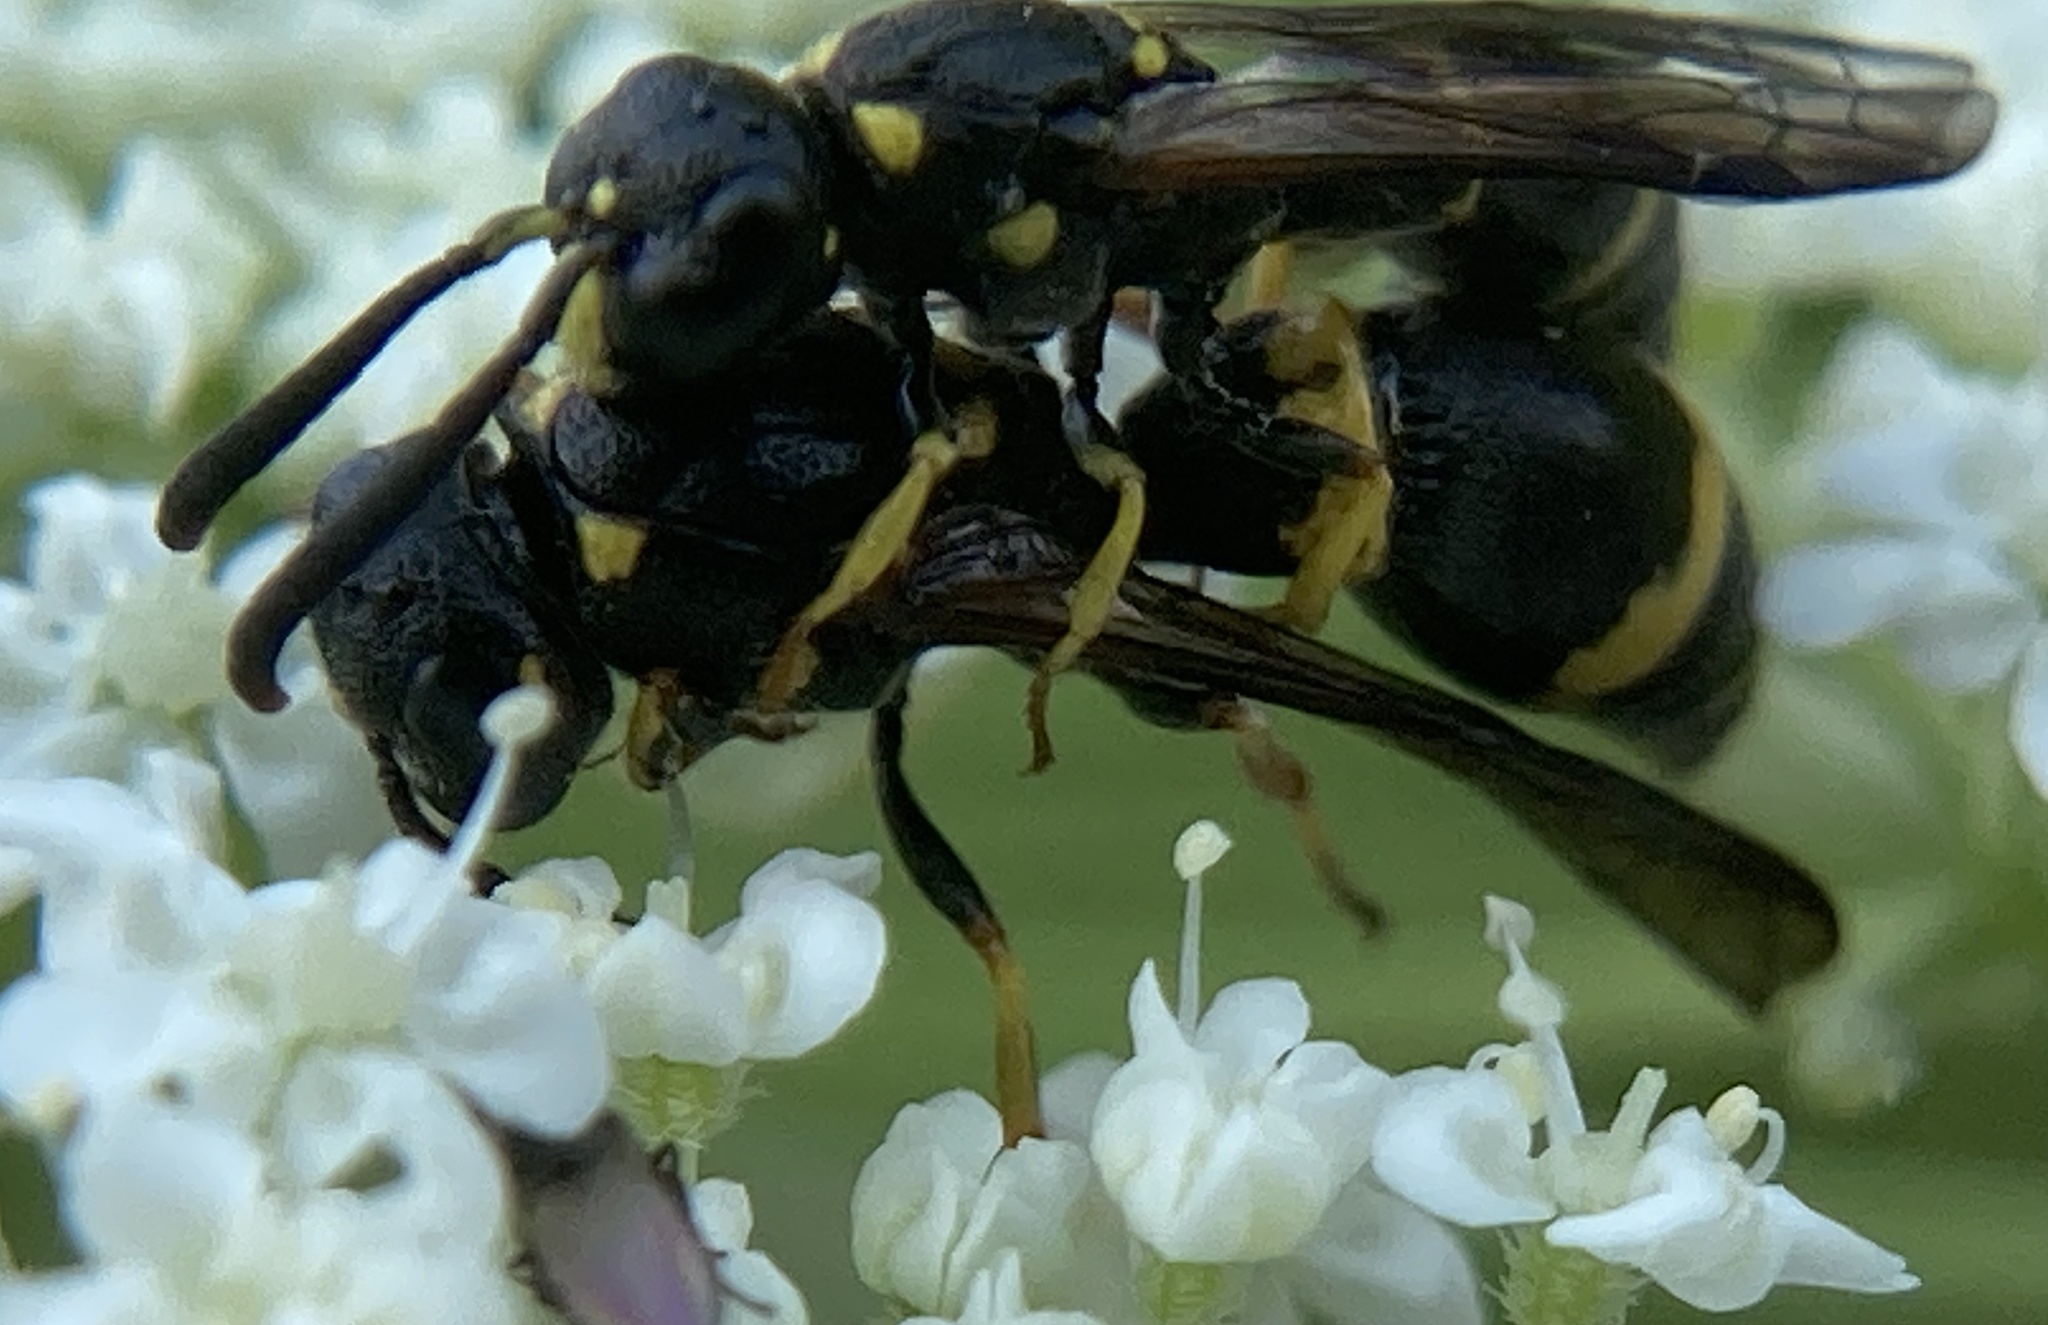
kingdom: Animalia
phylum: Arthropoda
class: Insecta
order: Hymenoptera
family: Eumenidae
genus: Symmorphus
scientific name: Symmorphus albomarginatus
